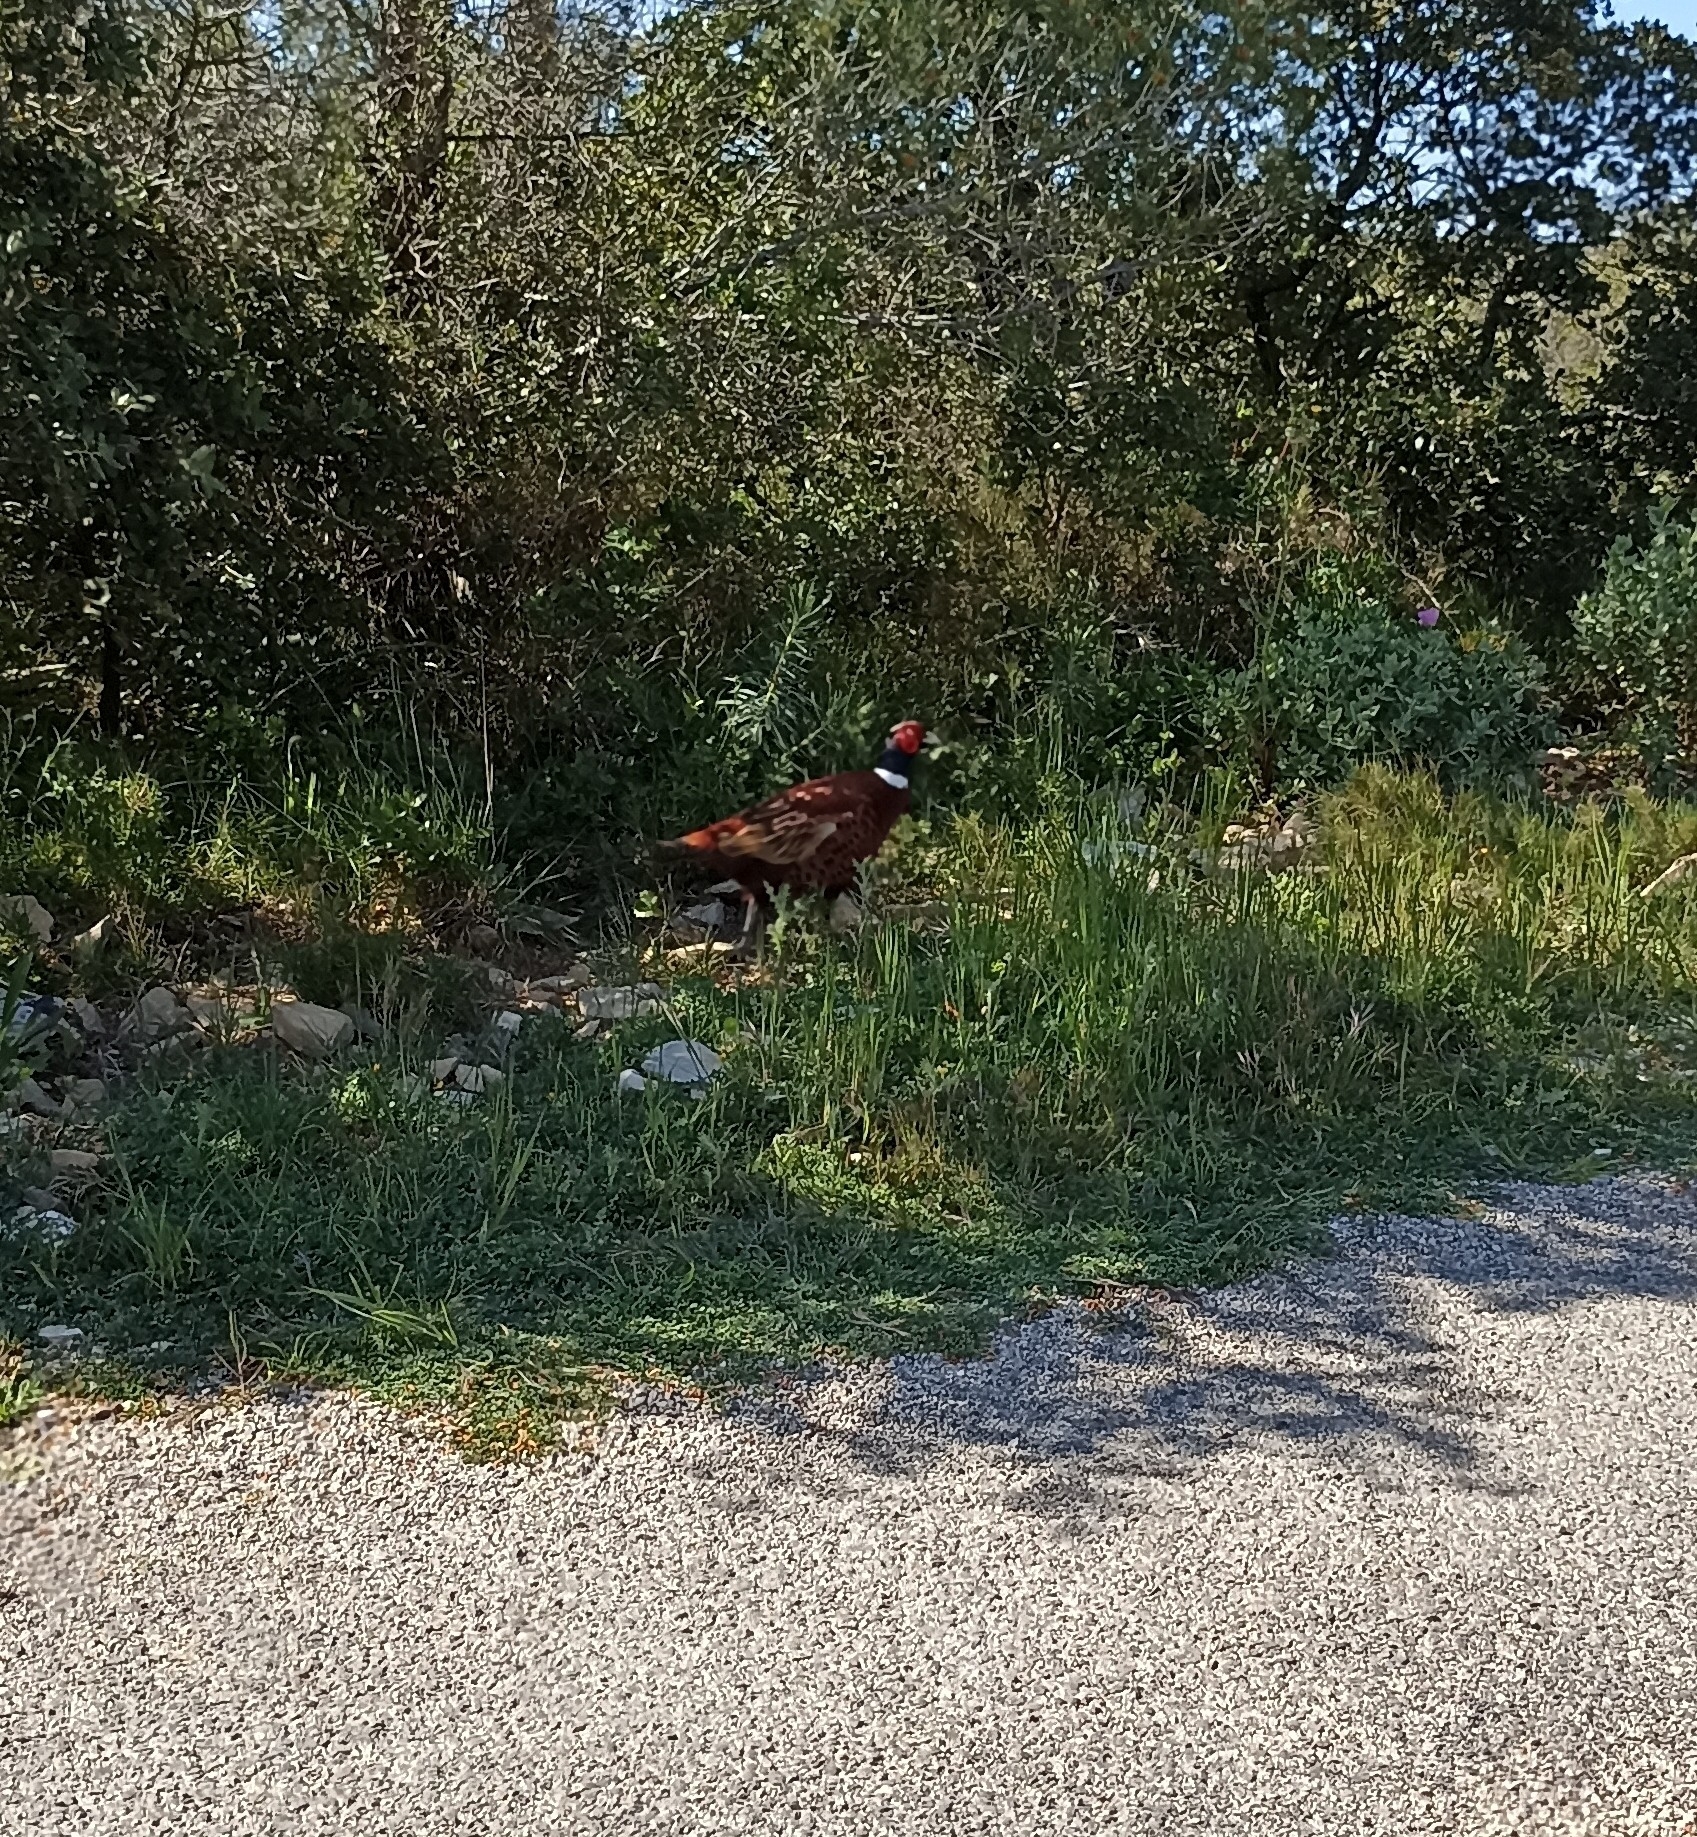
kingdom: Animalia
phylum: Chordata
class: Aves
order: Galliformes
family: Phasianidae
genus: Phasianus
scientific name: Phasianus colchicus
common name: Common pheasant
